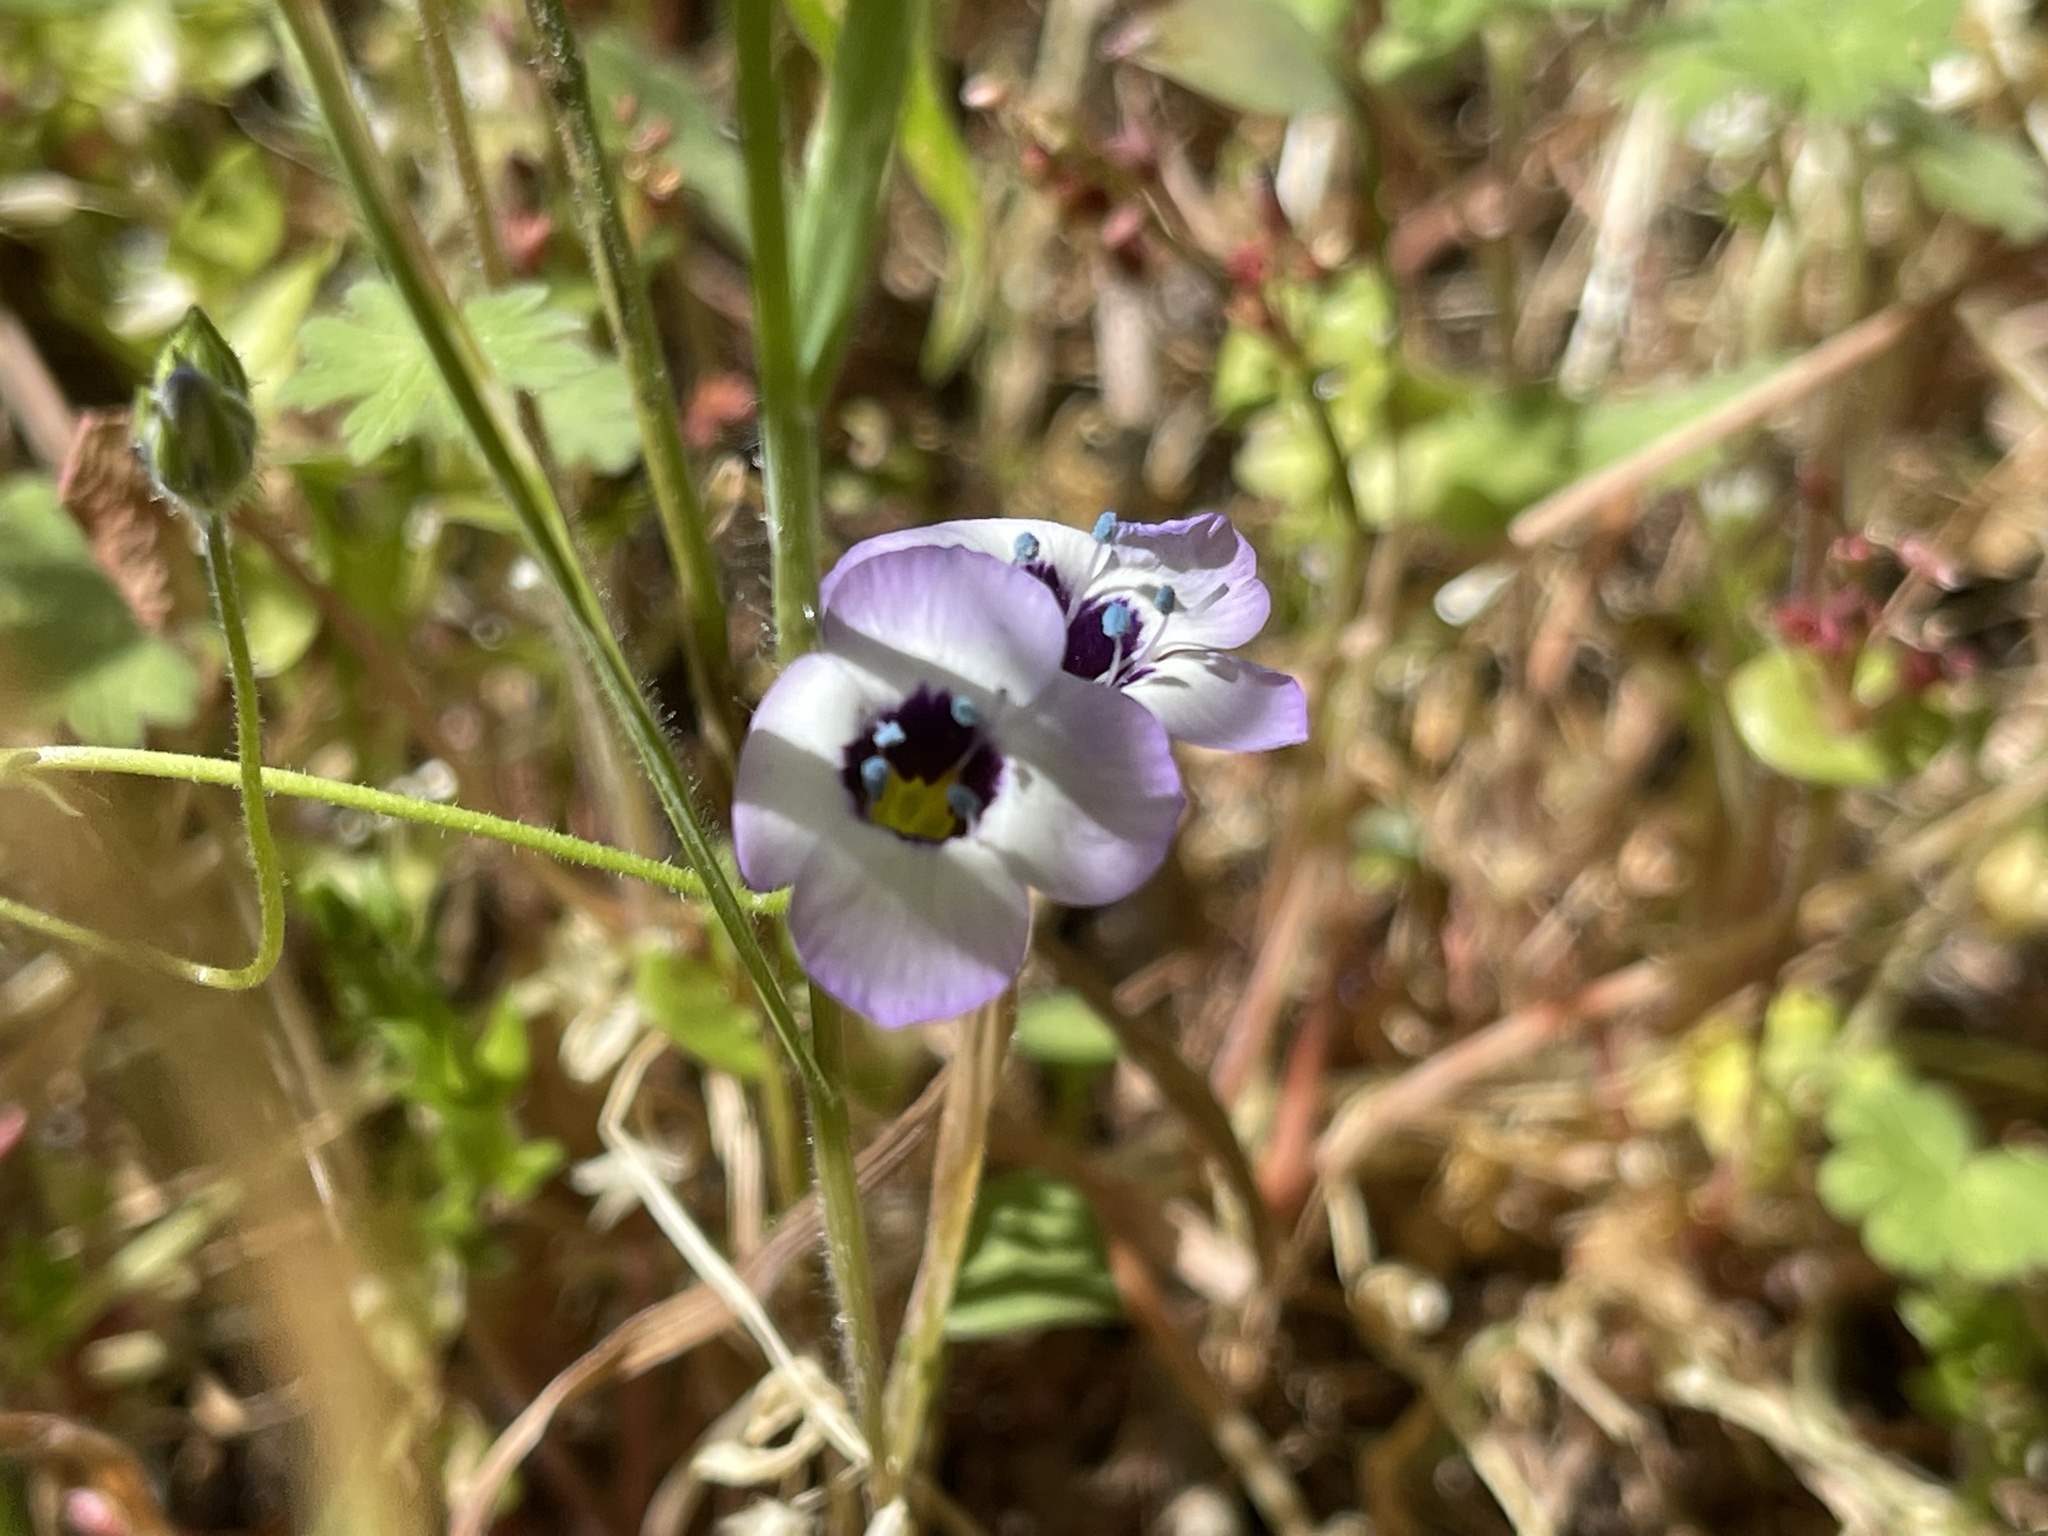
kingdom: Plantae
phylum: Tracheophyta
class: Magnoliopsida
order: Ericales
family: Polemoniaceae
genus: Gilia
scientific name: Gilia tricolor
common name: Bird's-eyes
